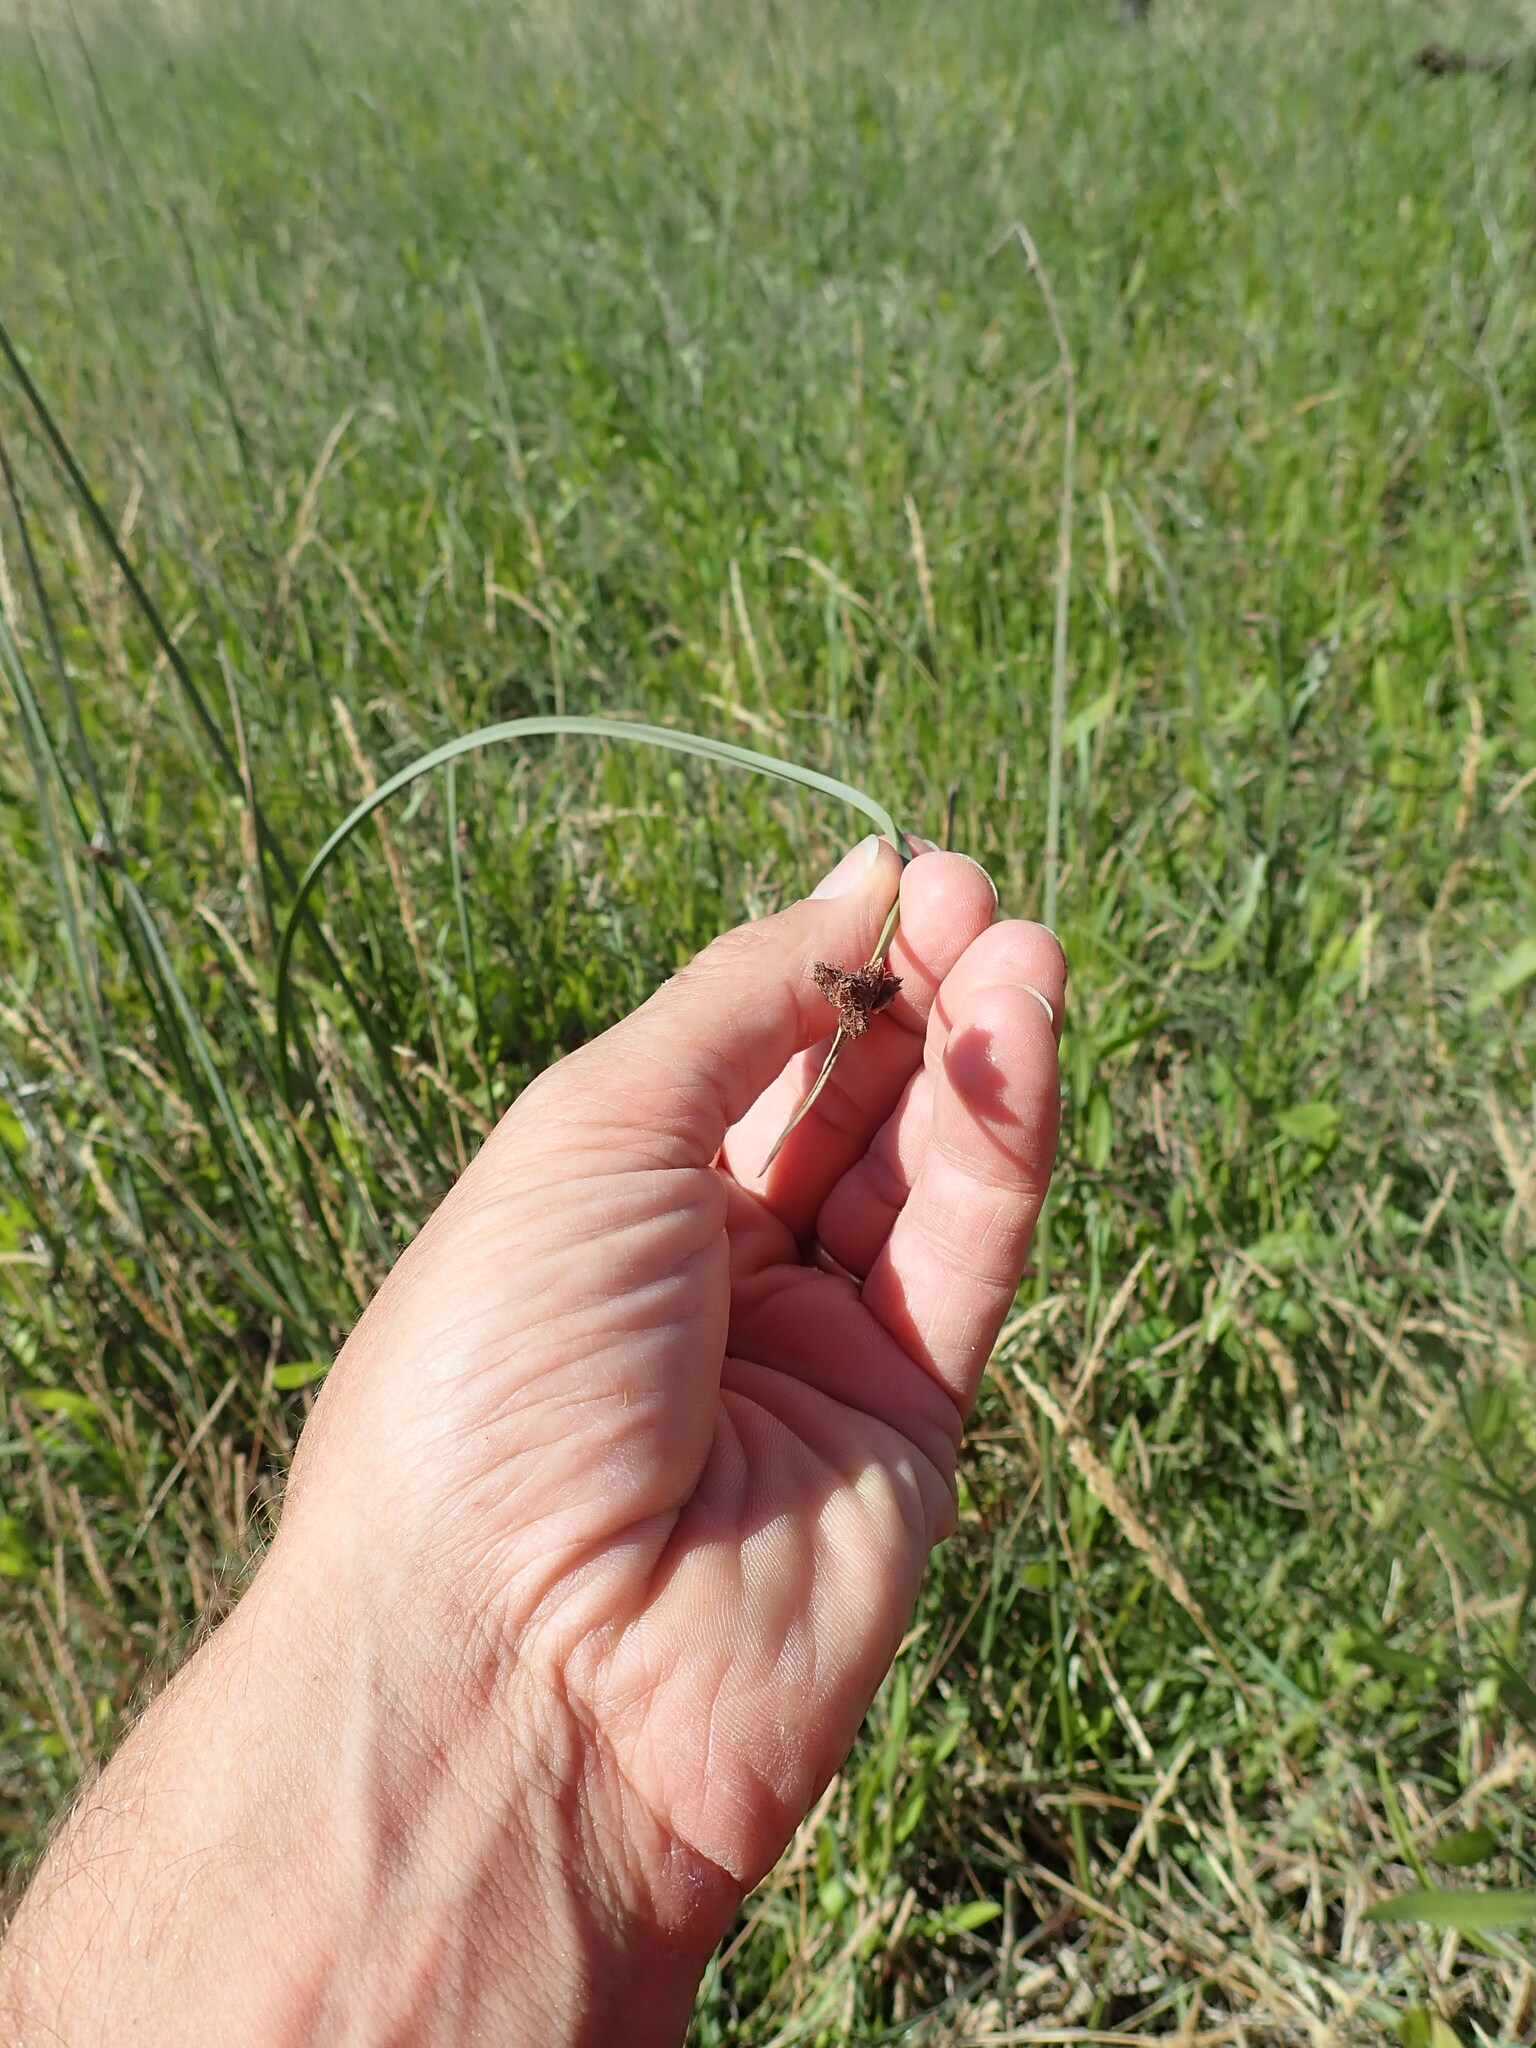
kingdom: Plantae
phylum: Tracheophyta
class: Liliopsida
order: Poales
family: Cyperaceae
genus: Schoenoplectus
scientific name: Schoenoplectus pungens
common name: Sharp club-rush
